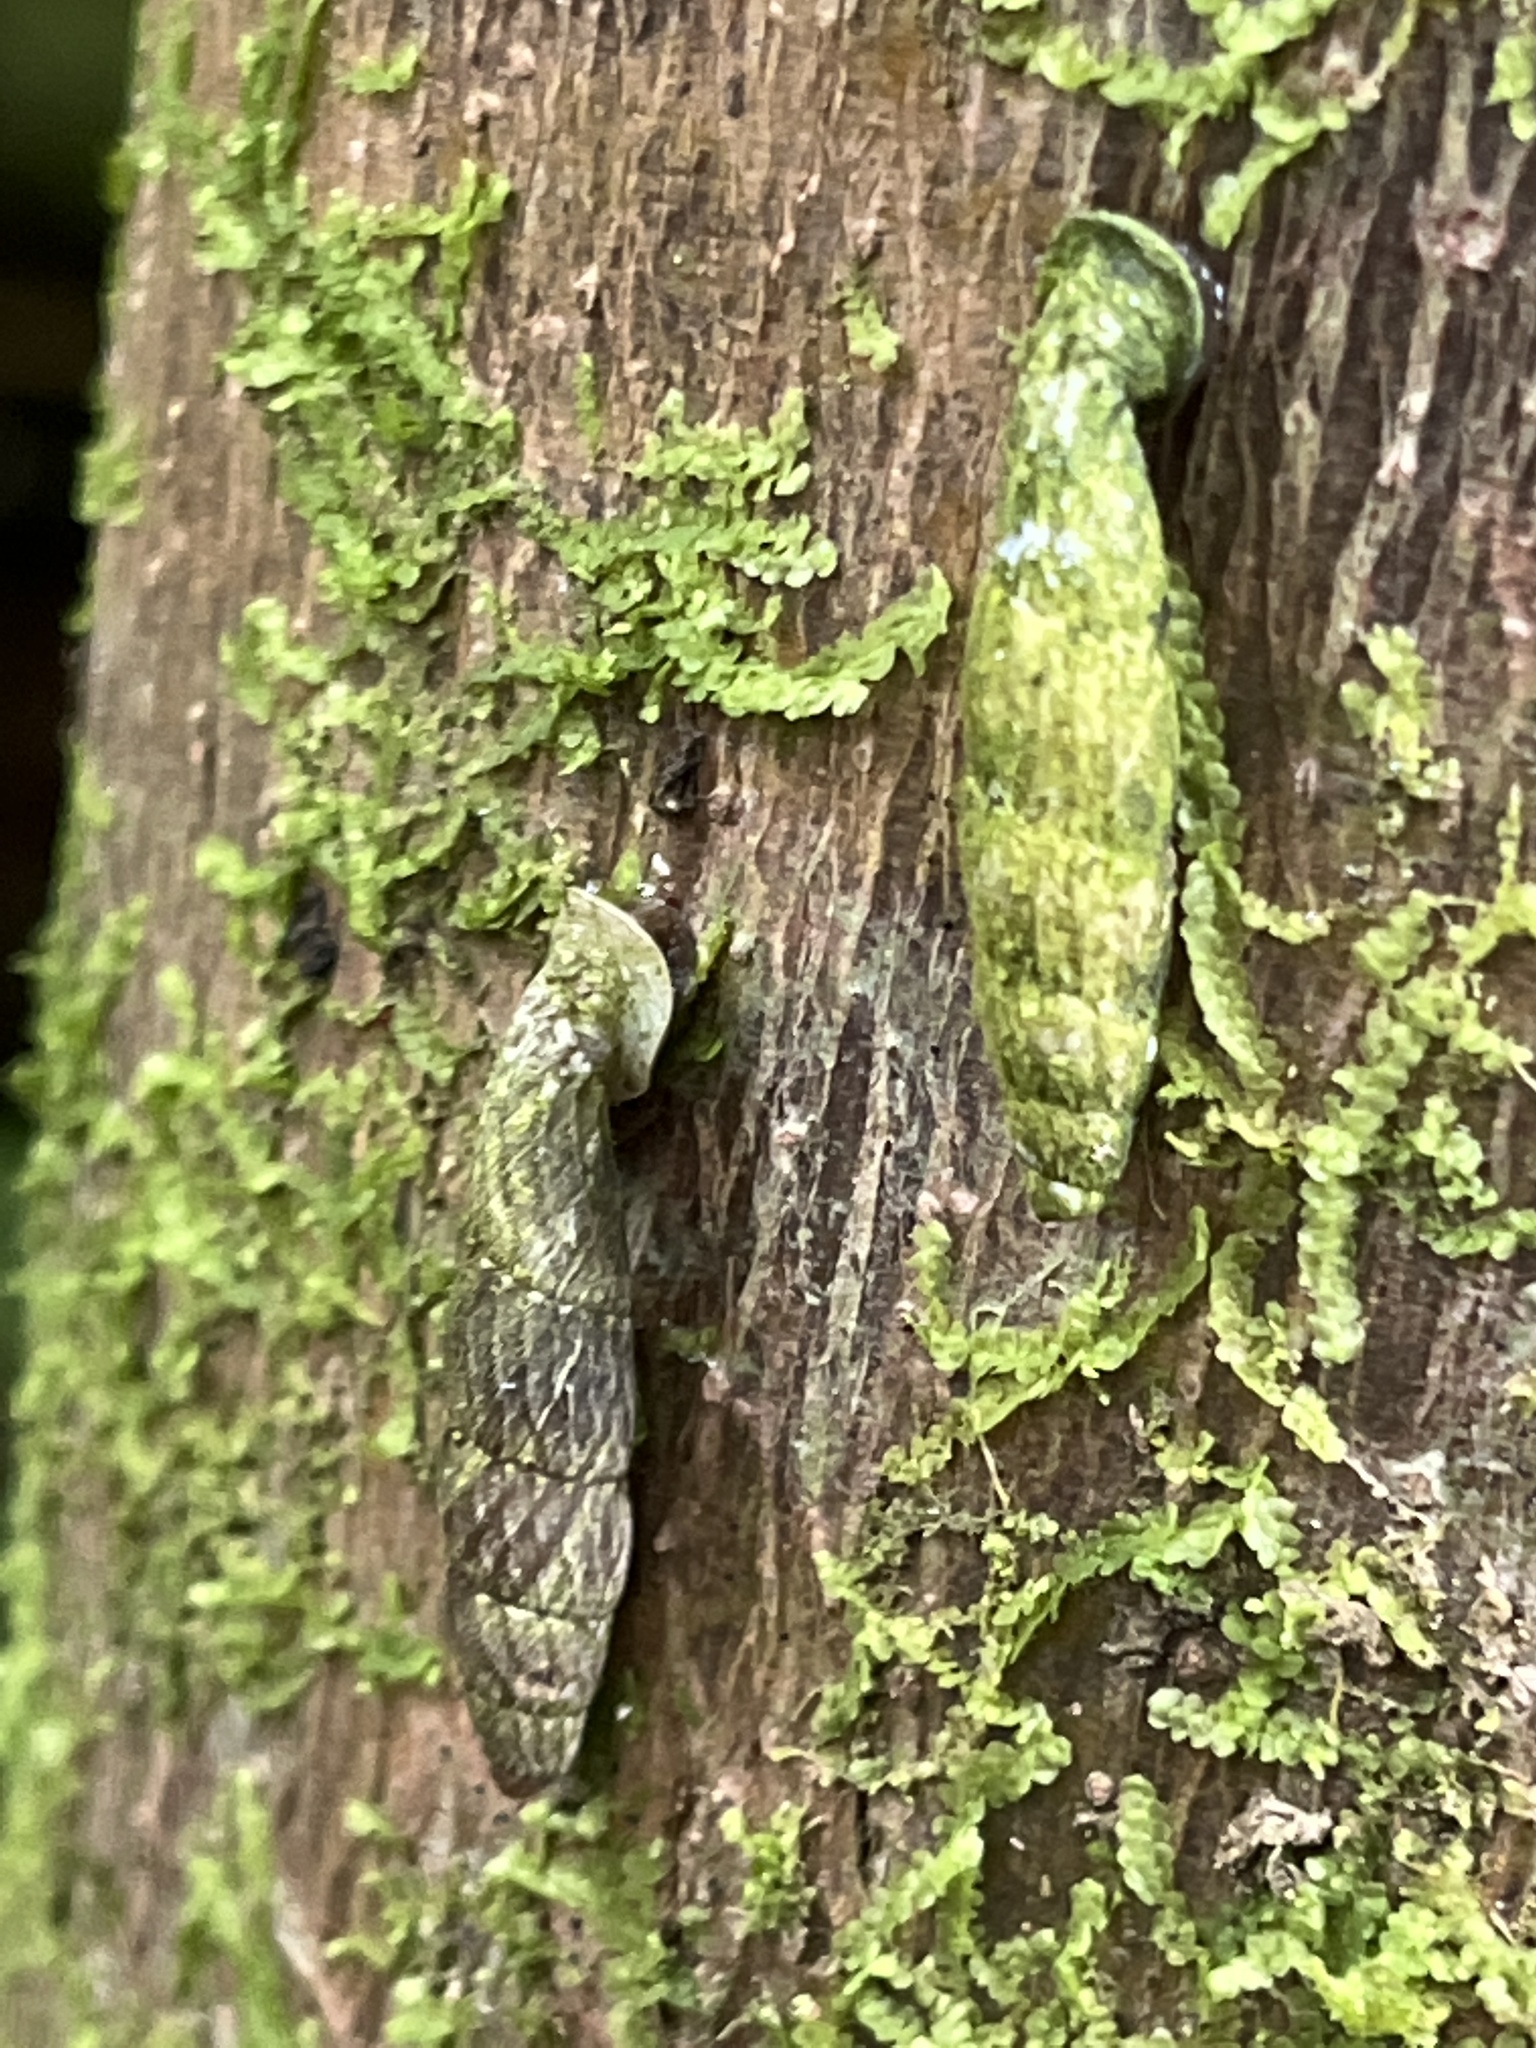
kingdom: Animalia
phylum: Mollusca
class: Gastropoda
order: Stylommatophora
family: Clausiliidae
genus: Nenia
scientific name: Nenia tridens
